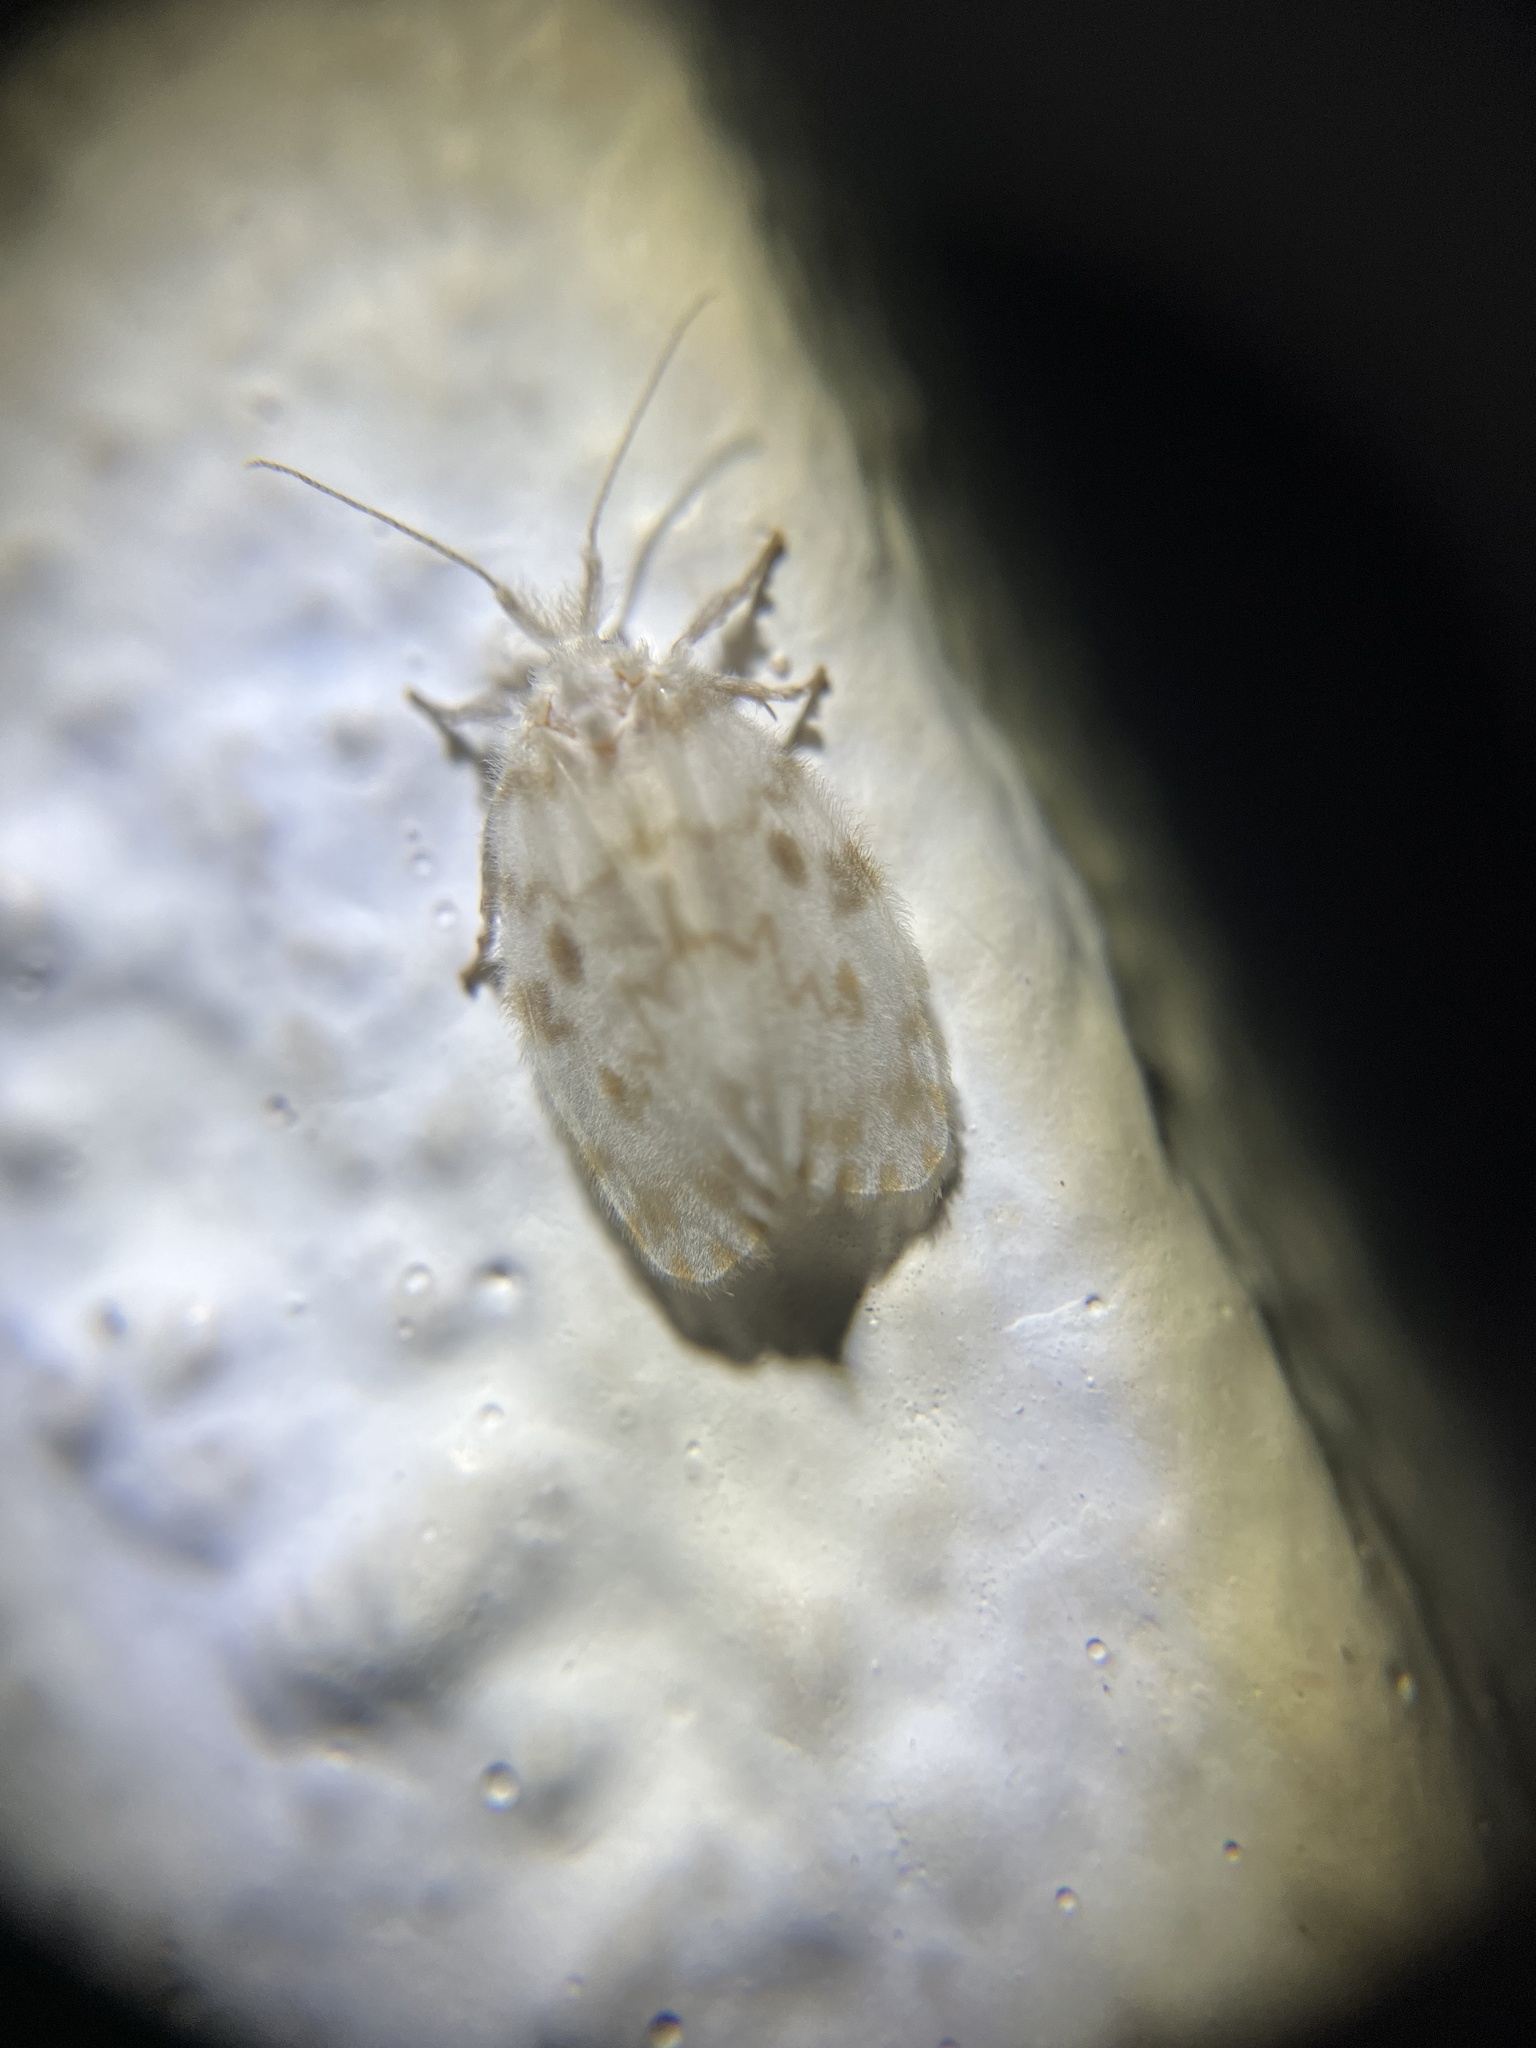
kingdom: Animalia
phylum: Arthropoda
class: Insecta
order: Lepidoptera
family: Erebidae
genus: Chamaita
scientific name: Chamaita nympha
